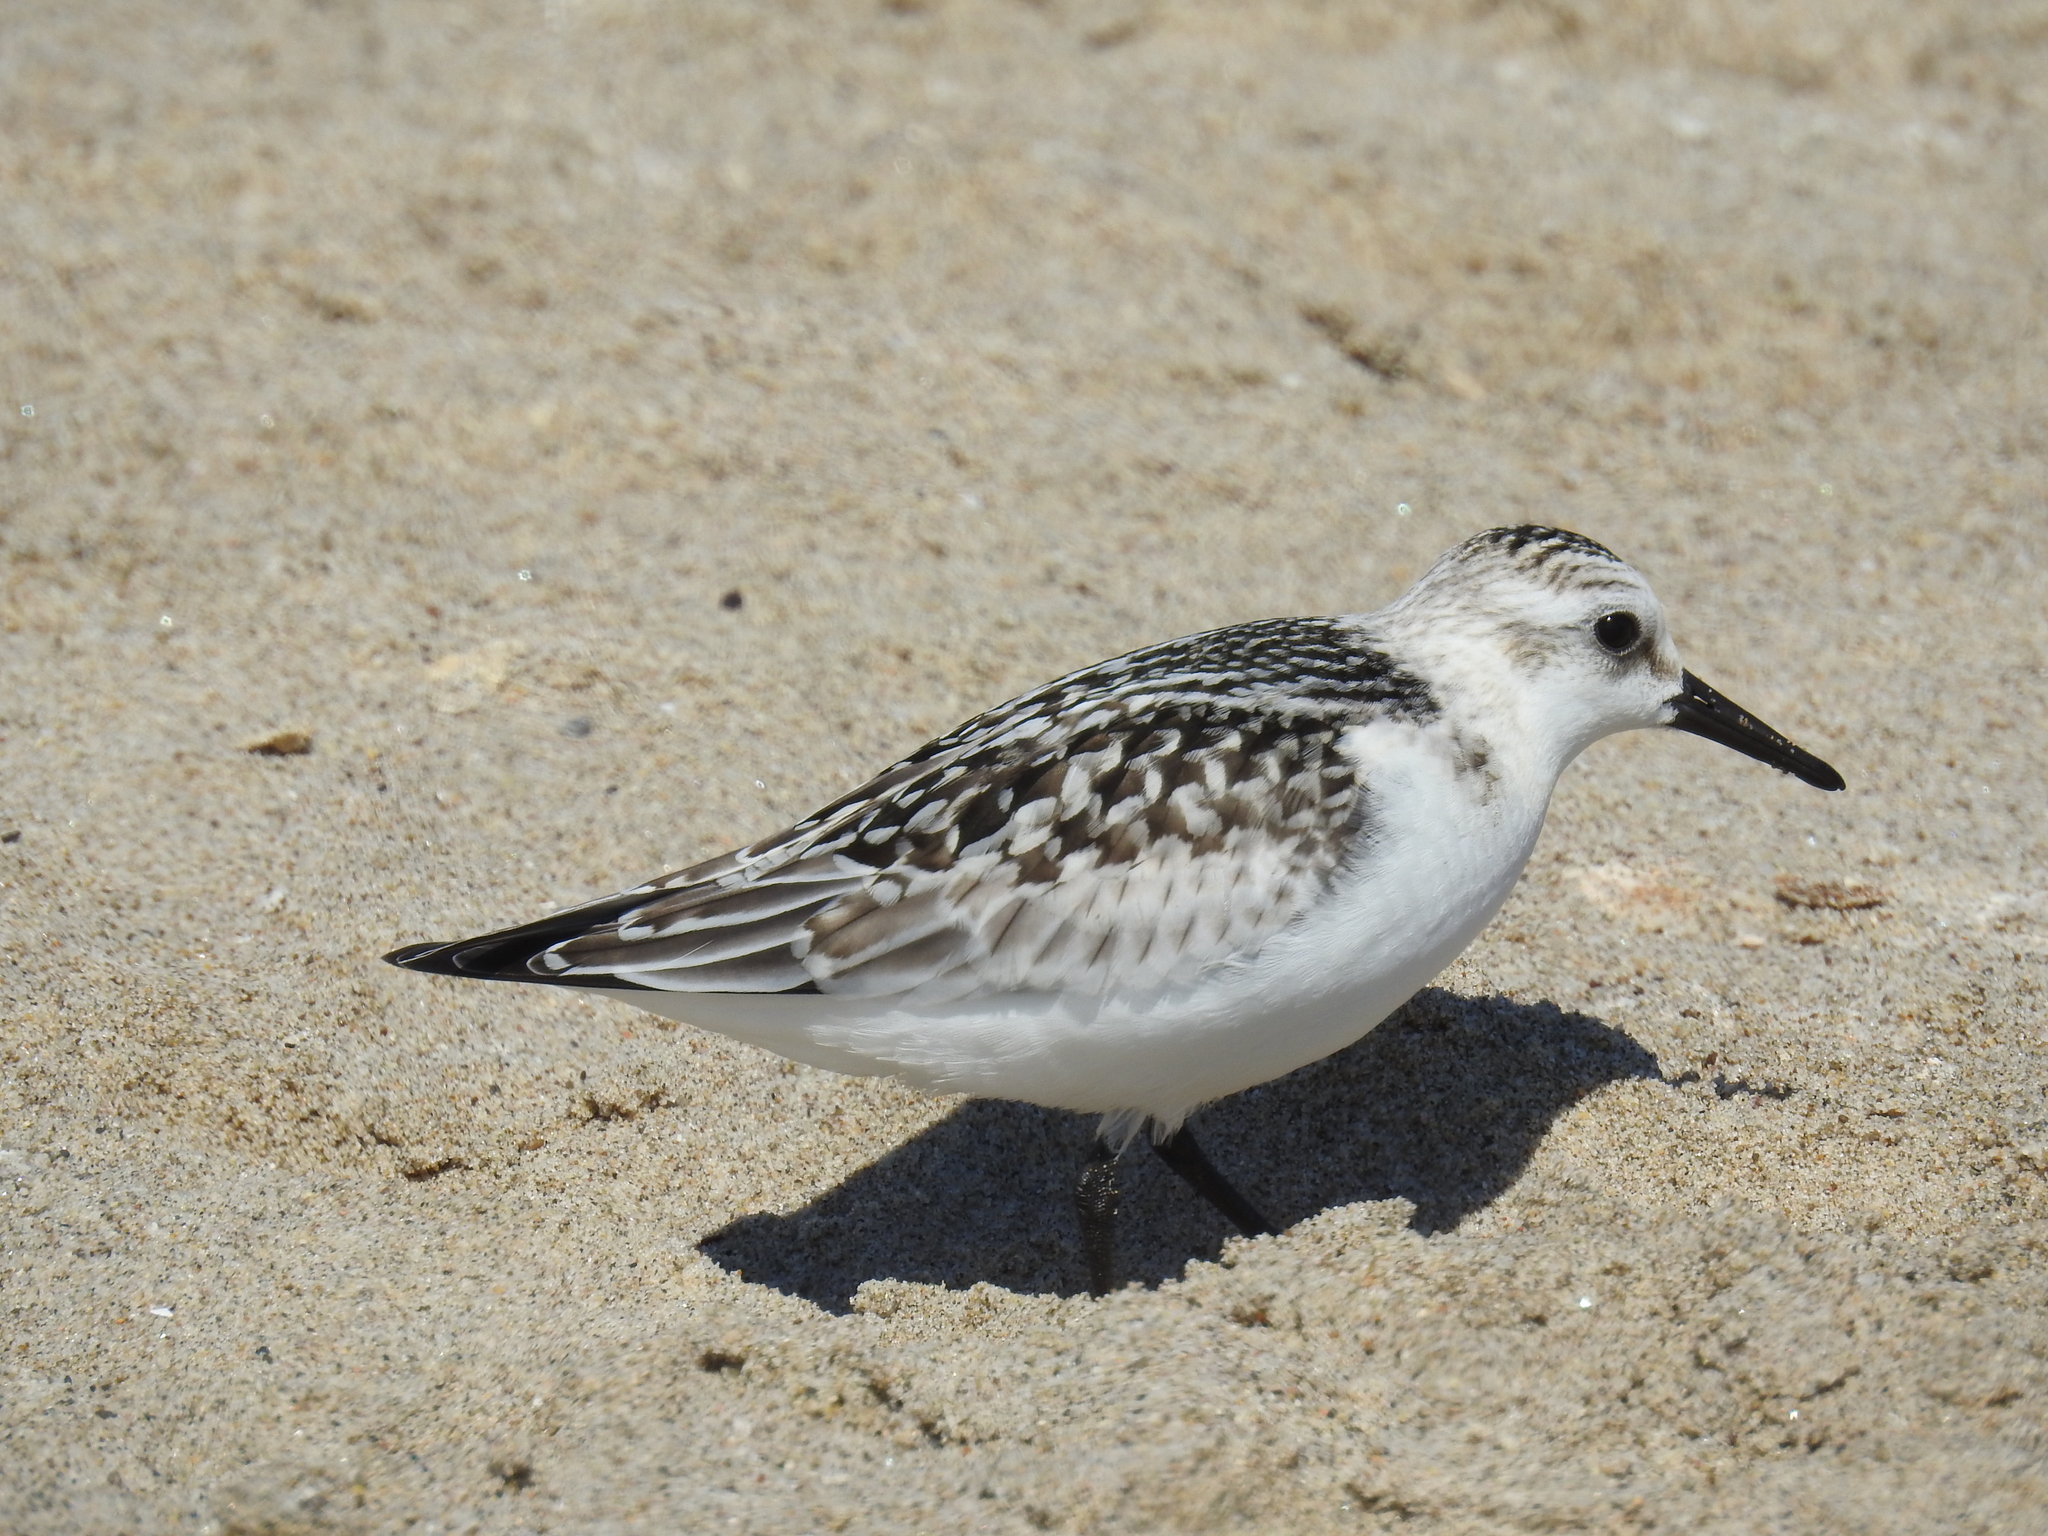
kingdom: Animalia
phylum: Chordata
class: Aves
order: Charadriiformes
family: Scolopacidae
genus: Calidris
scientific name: Calidris alba
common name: Sanderling
